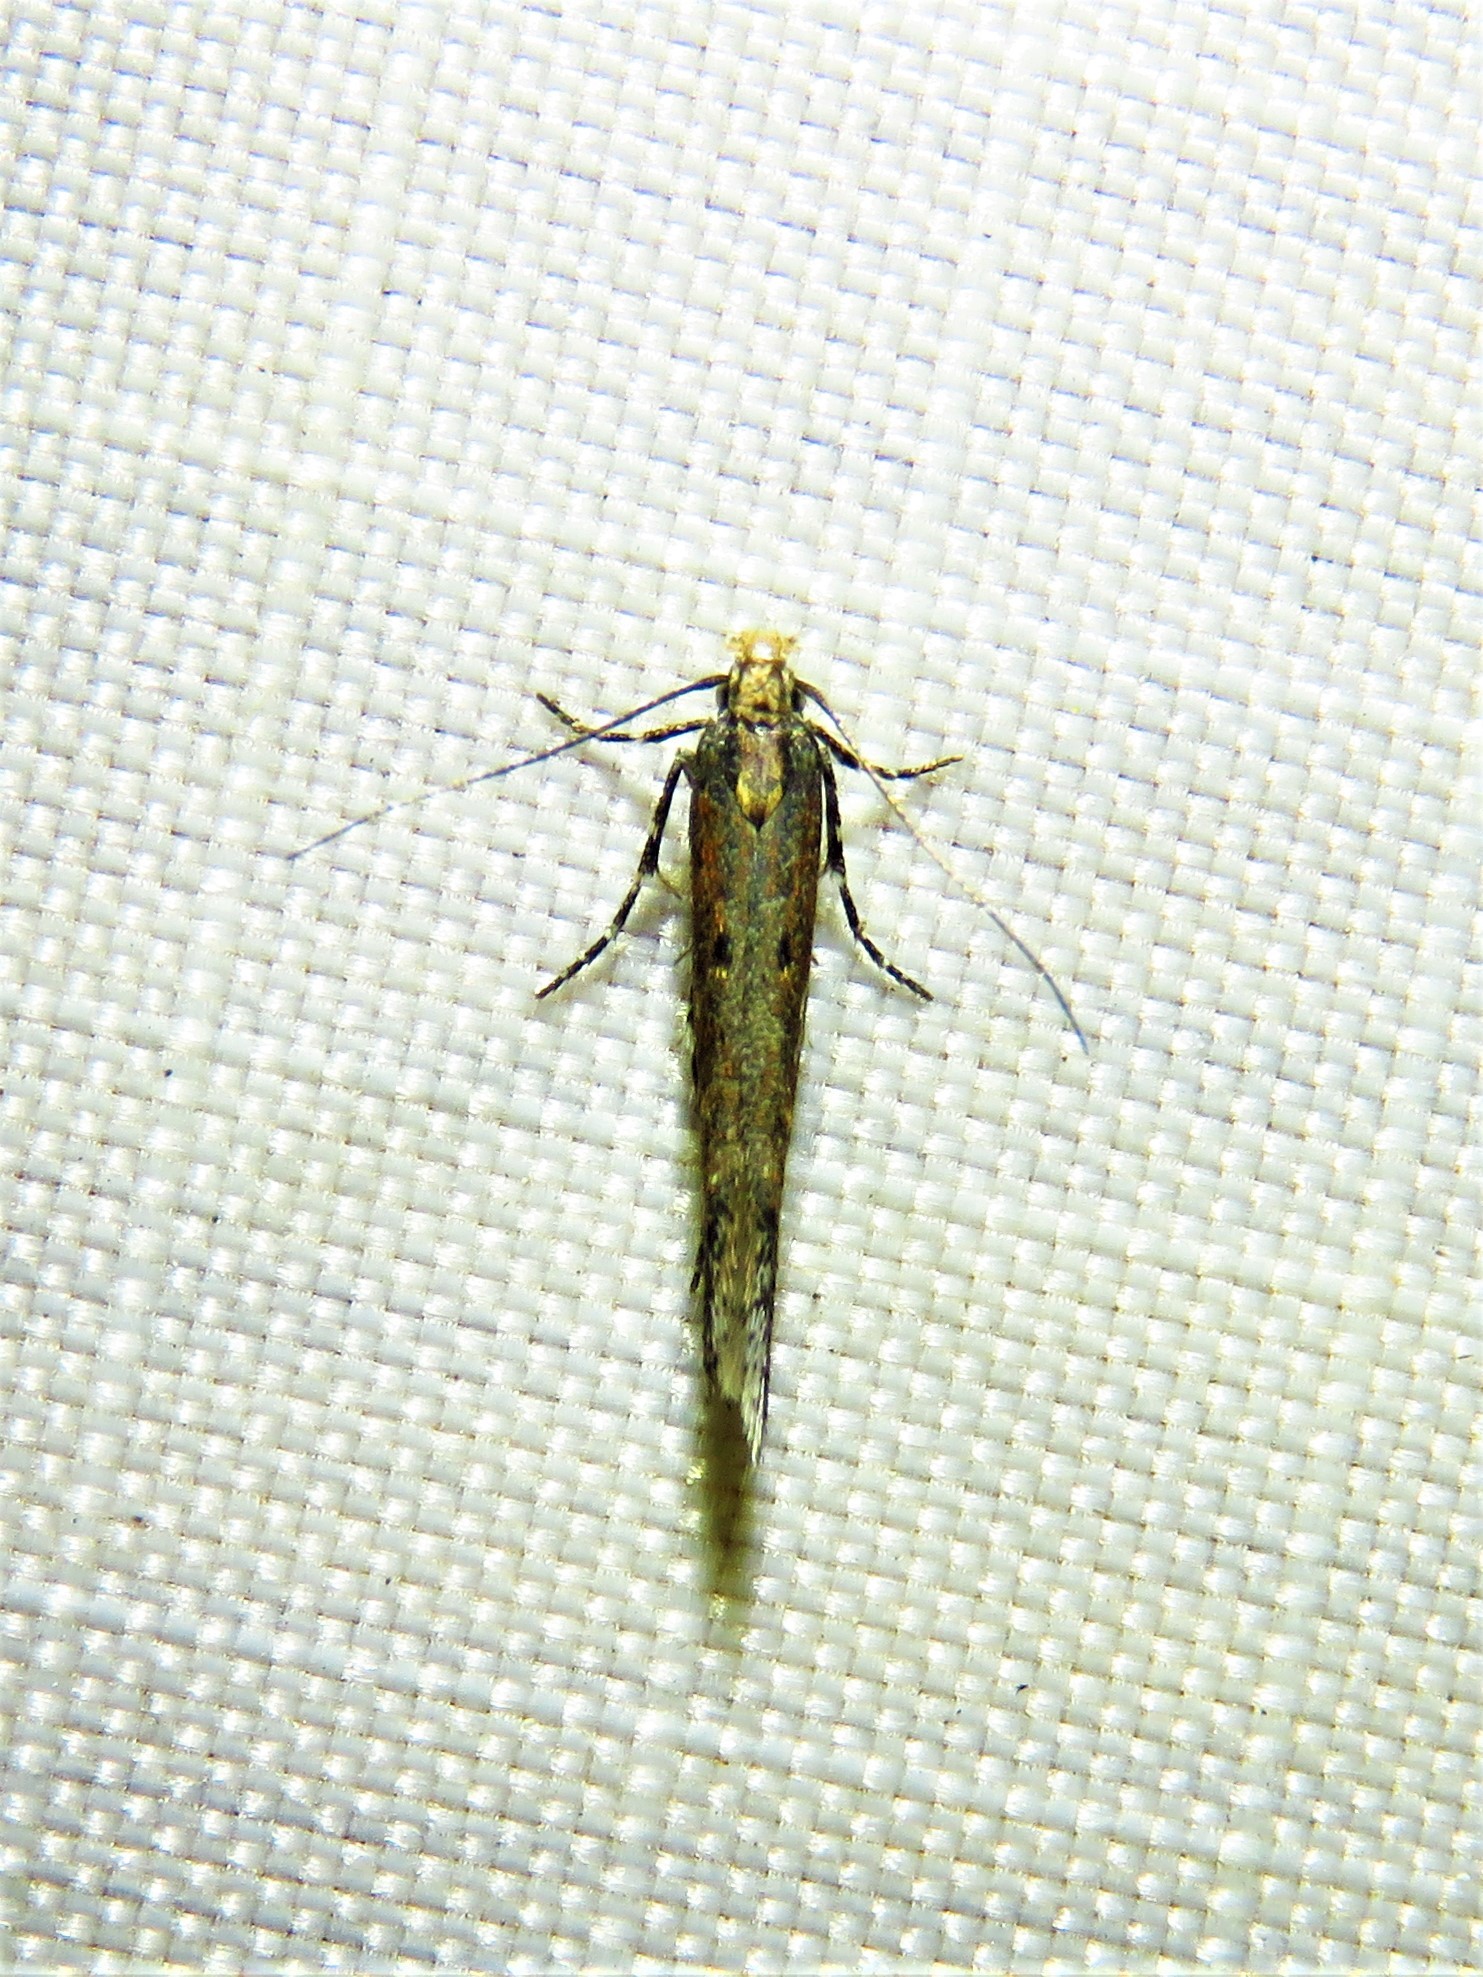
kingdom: Animalia
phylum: Arthropoda
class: Insecta
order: Lepidoptera
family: Gelechiidae
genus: Gnorimoschema
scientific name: Gnorimoschema saphirinella
